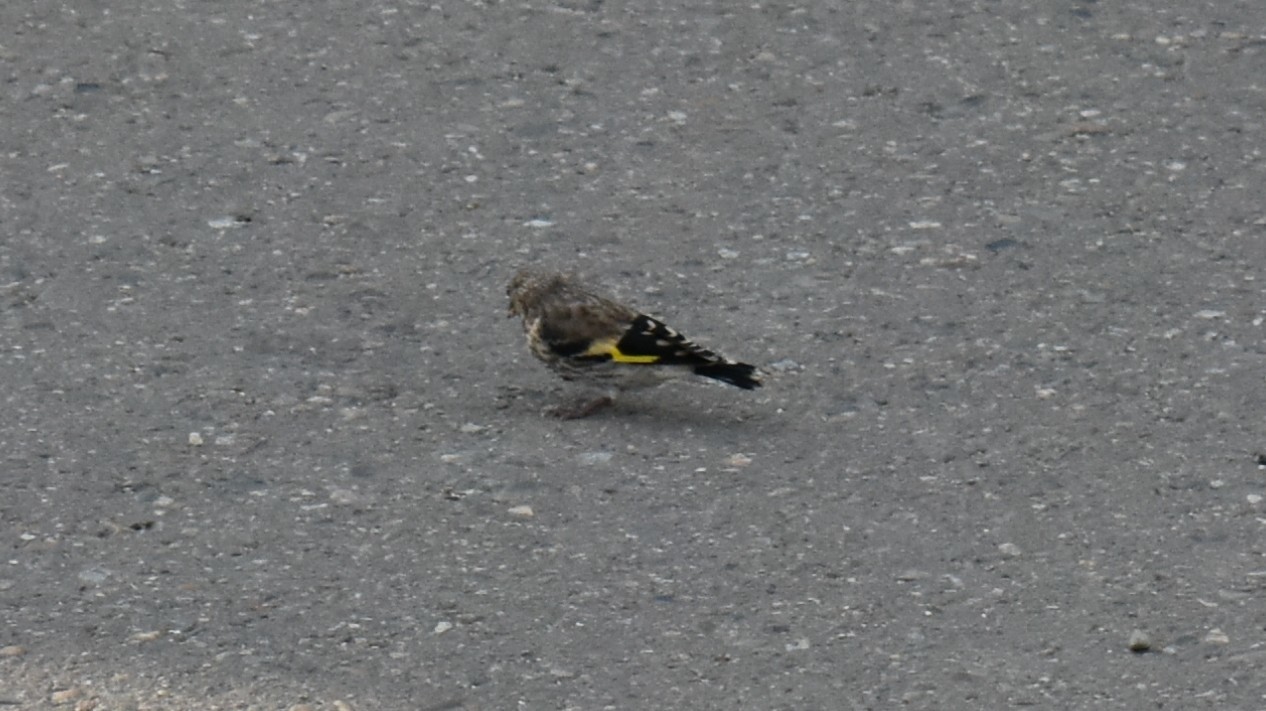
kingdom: Animalia
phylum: Chordata
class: Aves
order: Passeriformes
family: Fringillidae
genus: Carduelis
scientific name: Carduelis carduelis
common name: European goldfinch
